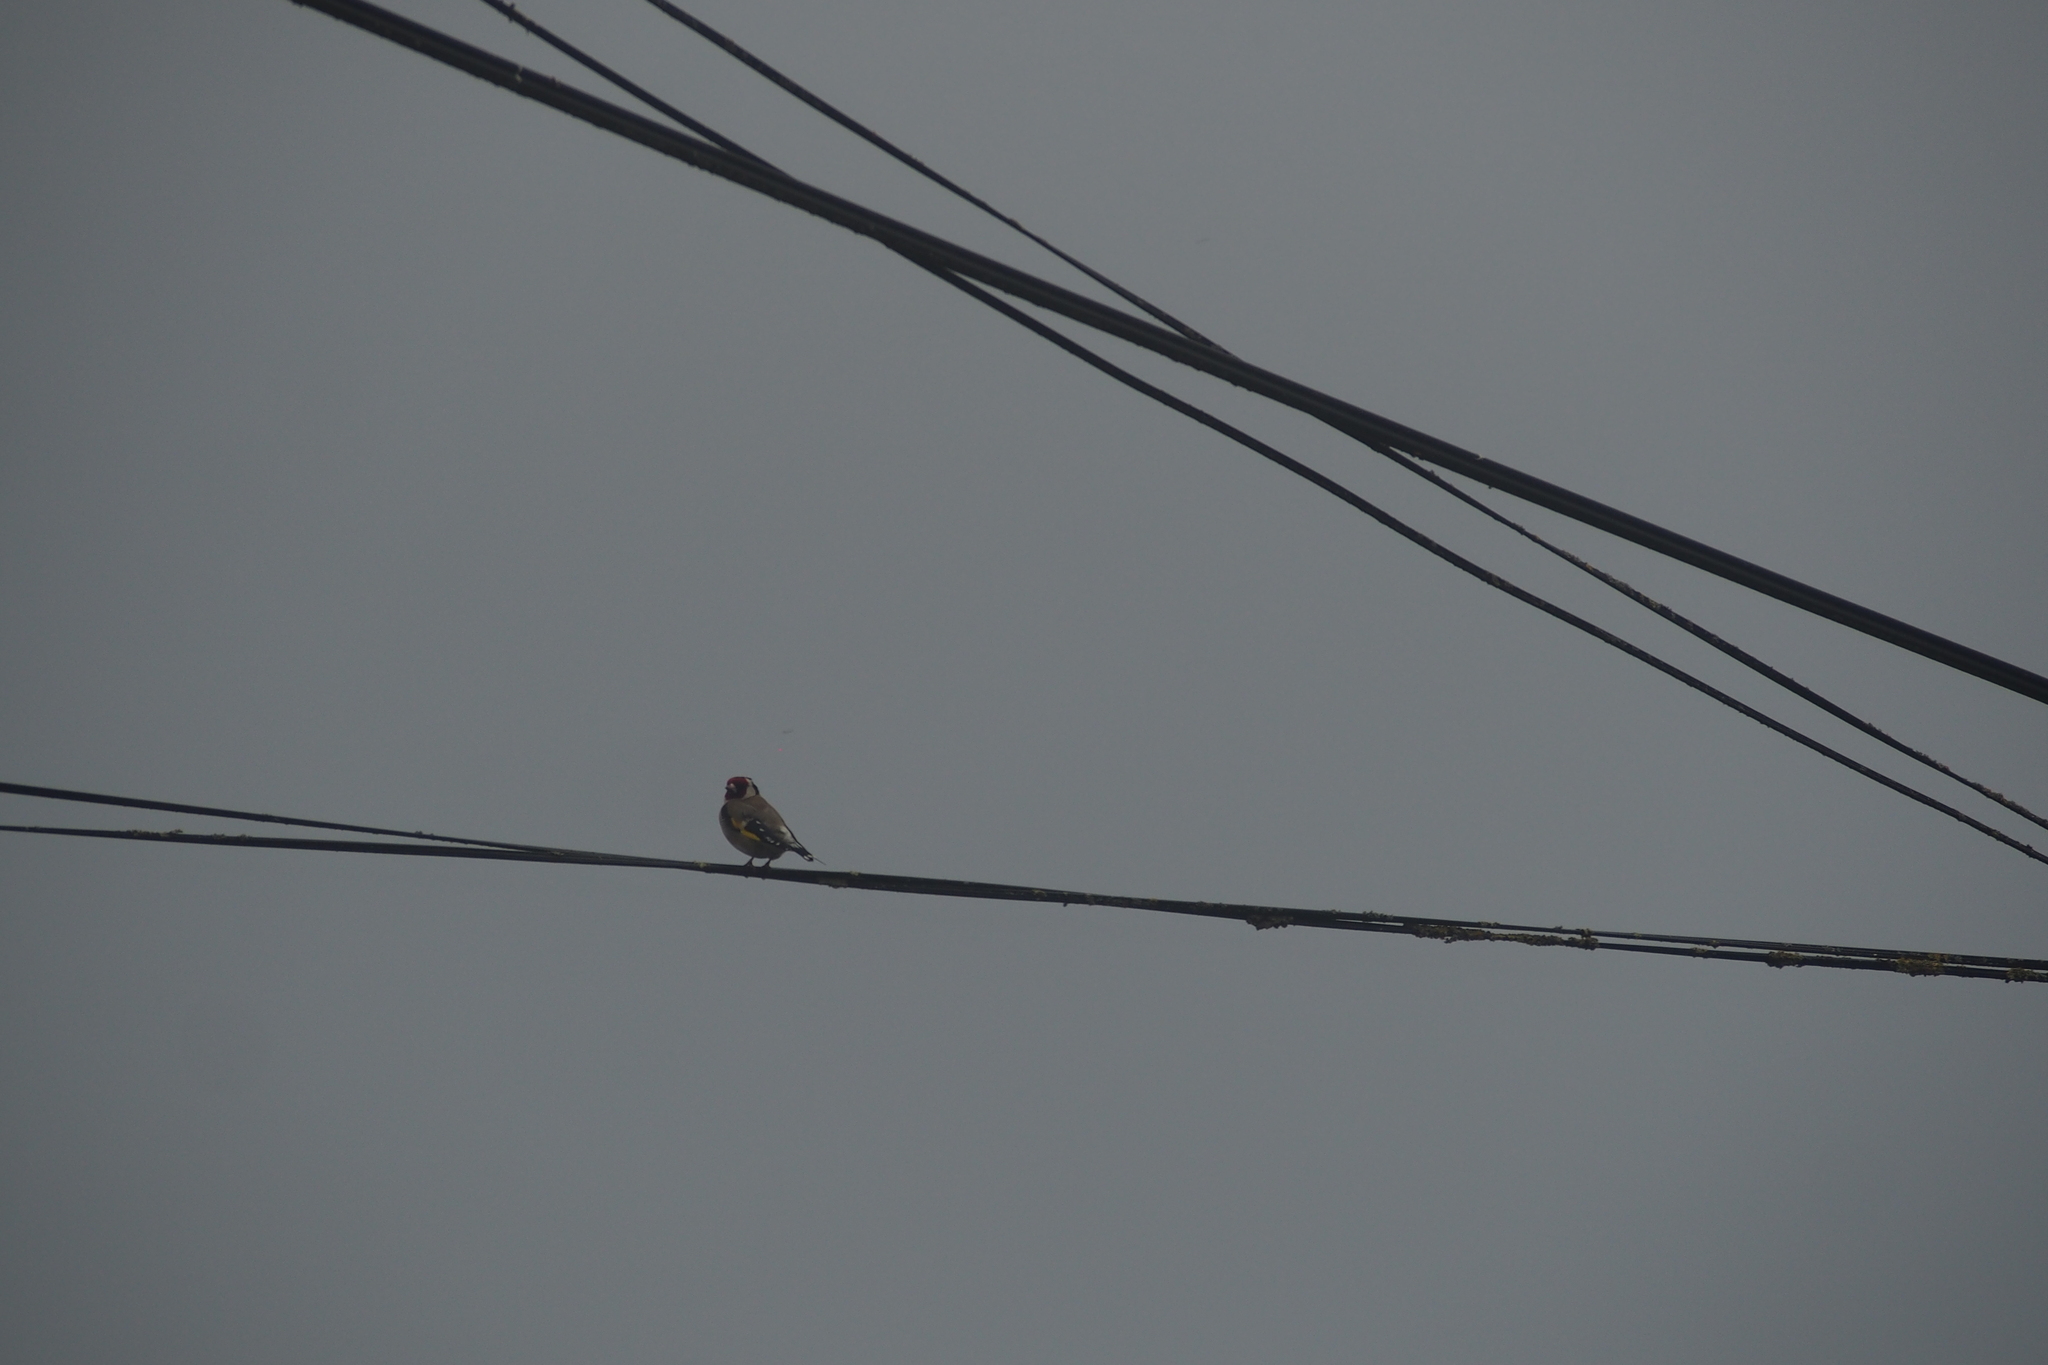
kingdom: Animalia
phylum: Chordata
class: Aves
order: Passeriformes
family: Fringillidae
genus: Carduelis
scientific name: Carduelis carduelis
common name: European goldfinch
